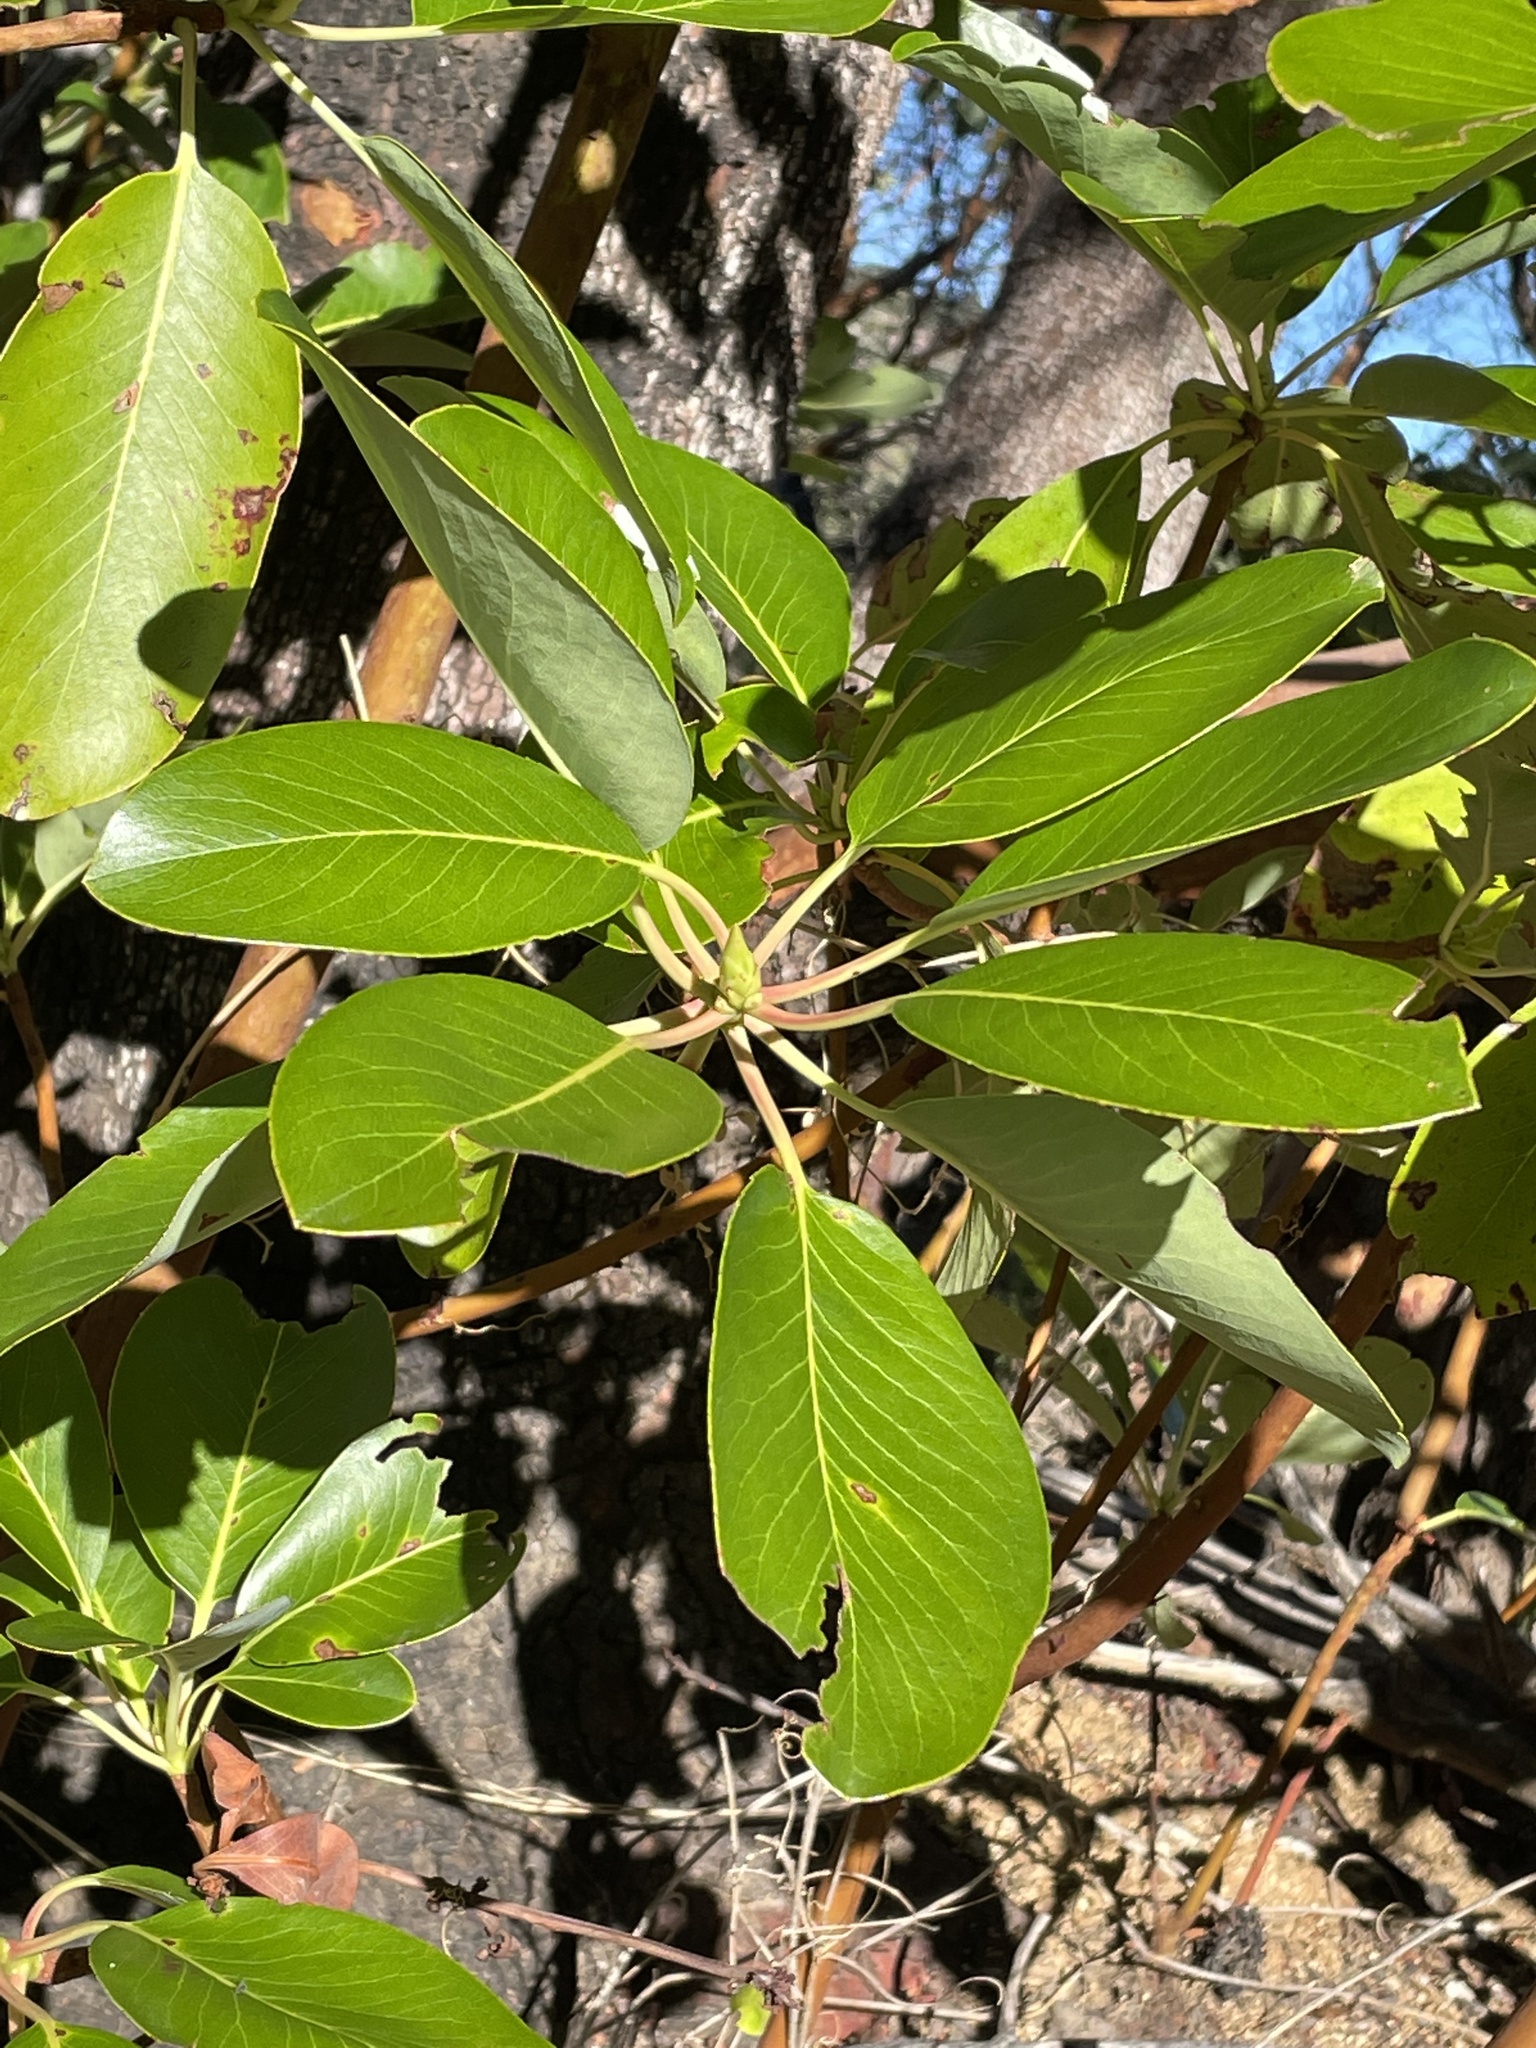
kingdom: Plantae
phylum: Tracheophyta
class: Magnoliopsida
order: Ericales
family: Ericaceae
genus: Arbutus
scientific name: Arbutus menziesii
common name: Pacific madrone
